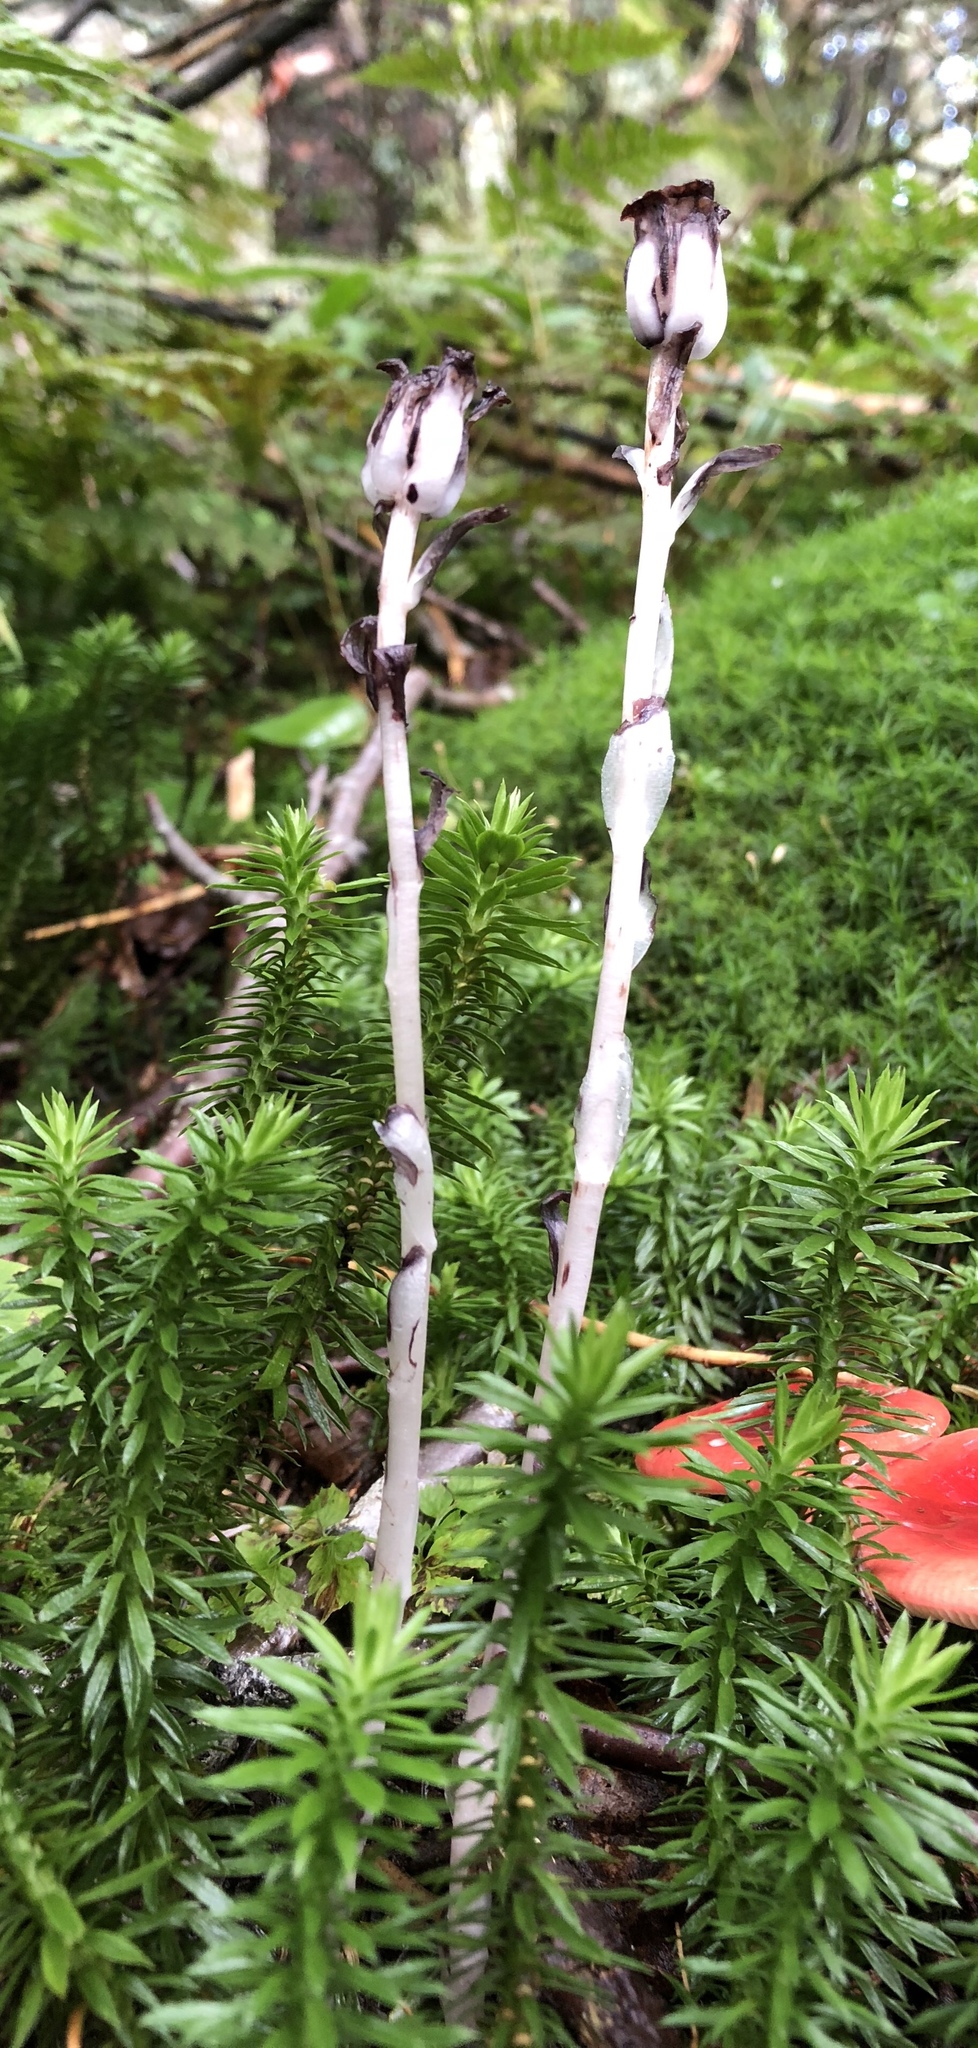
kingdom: Plantae
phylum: Tracheophyta
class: Magnoliopsida
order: Ericales
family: Ericaceae
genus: Monotropa
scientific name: Monotropa uniflora
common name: Convulsion root
